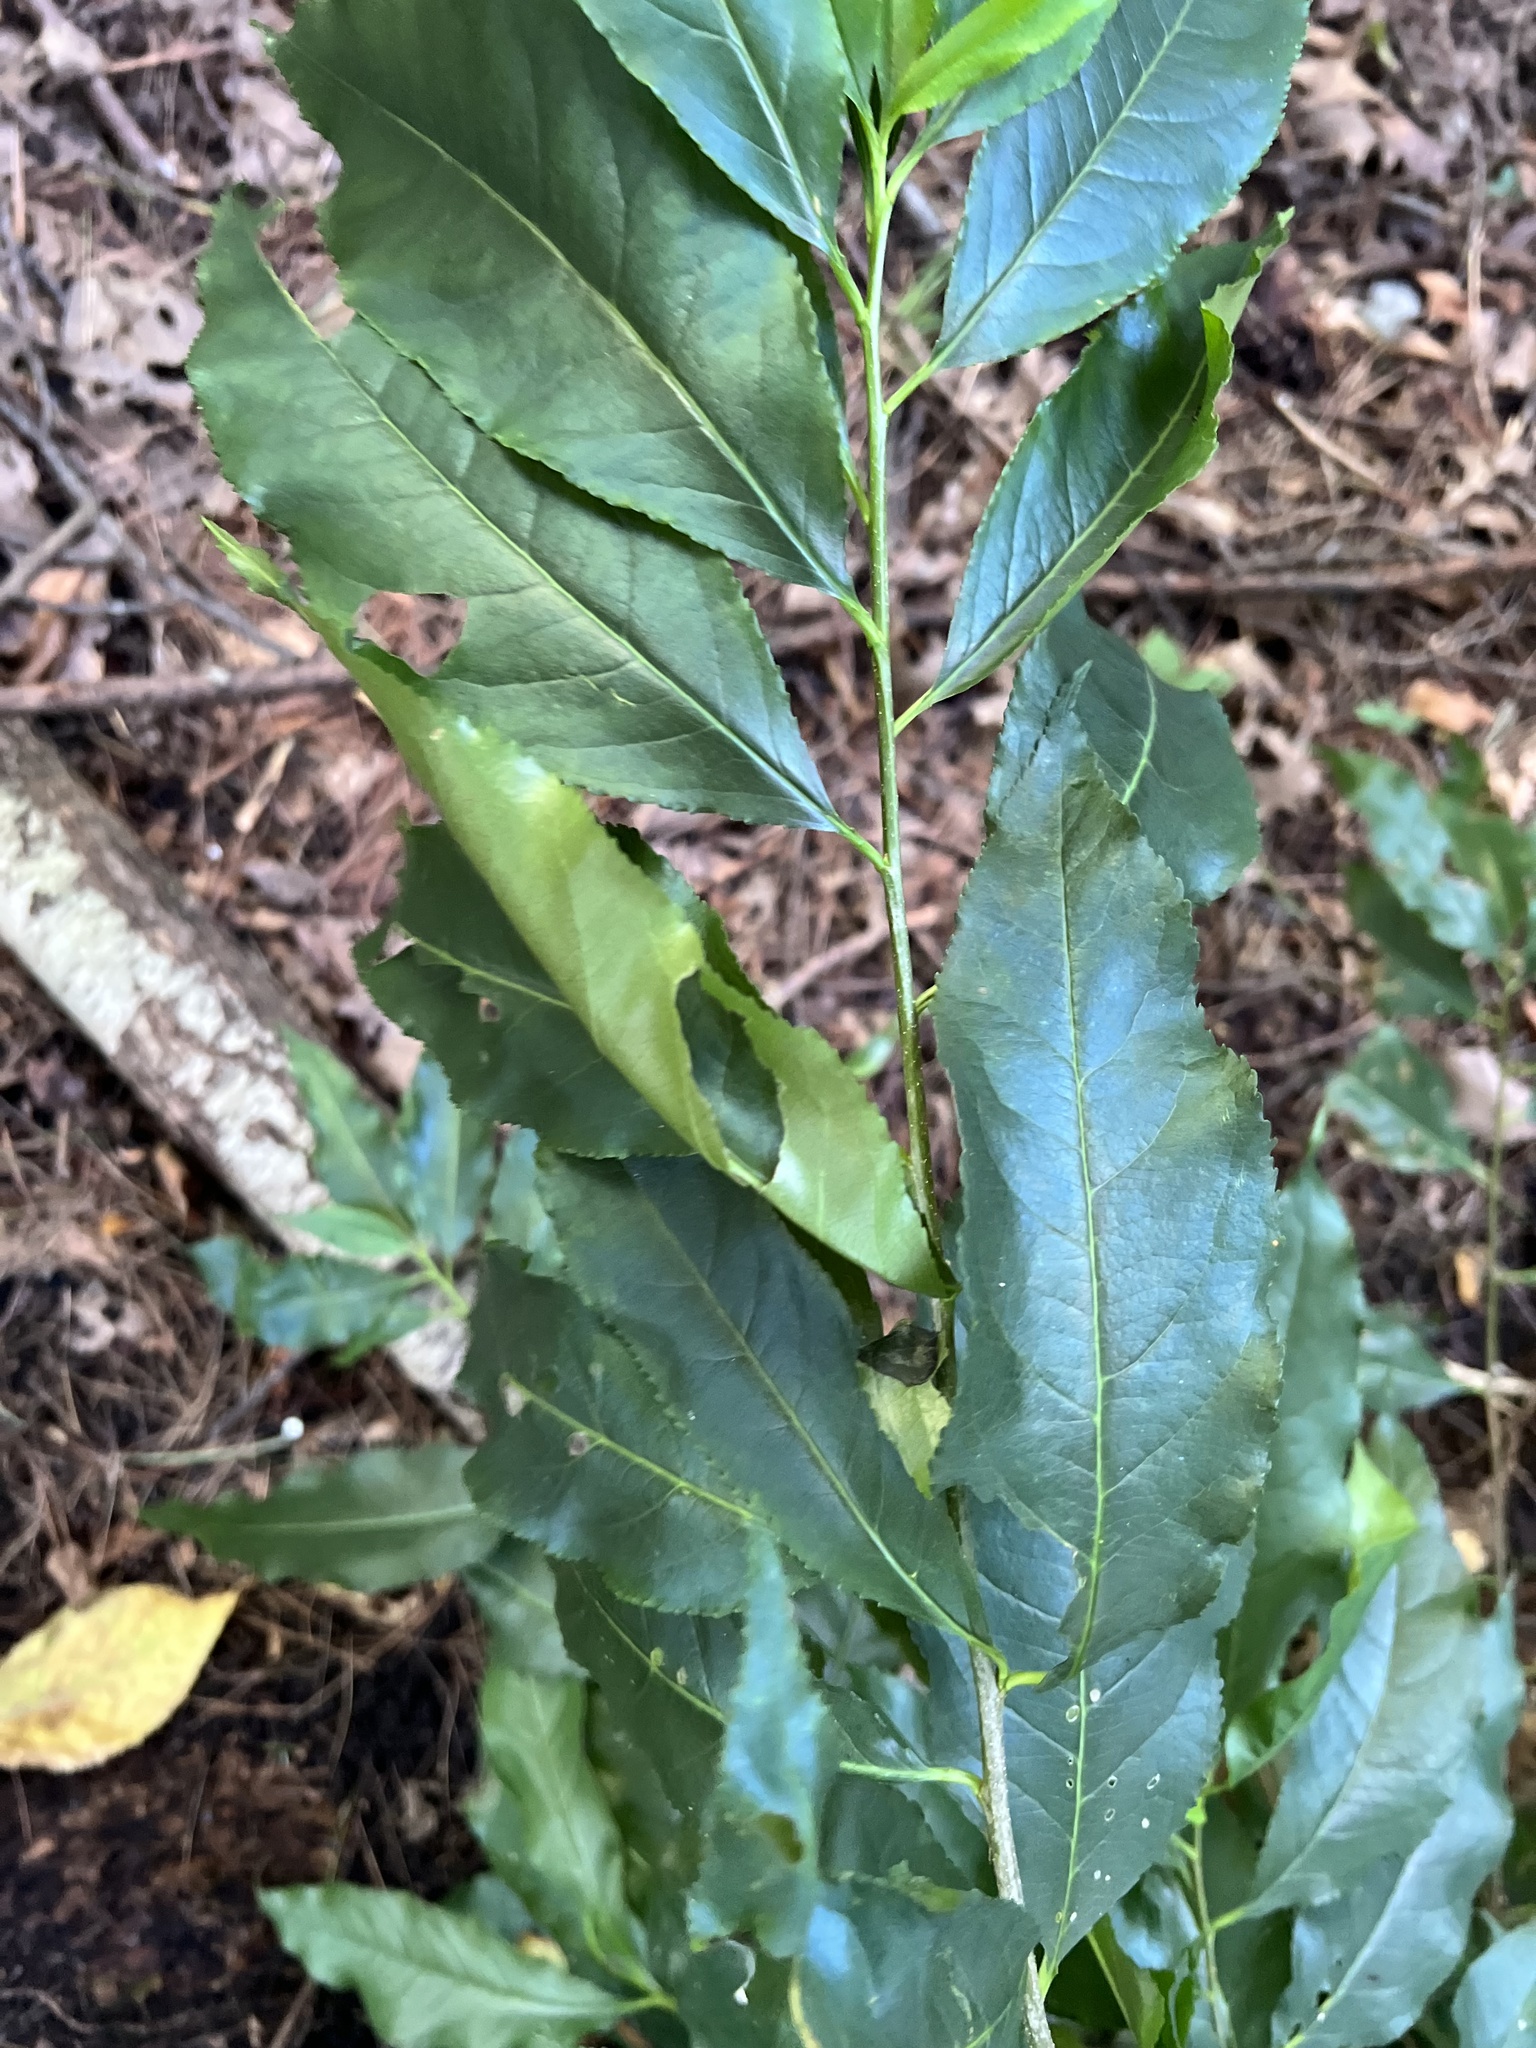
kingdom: Plantae
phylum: Tracheophyta
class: Magnoliopsida
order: Rosales
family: Rosaceae
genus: Prunus
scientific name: Prunus serotina
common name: Black cherry
